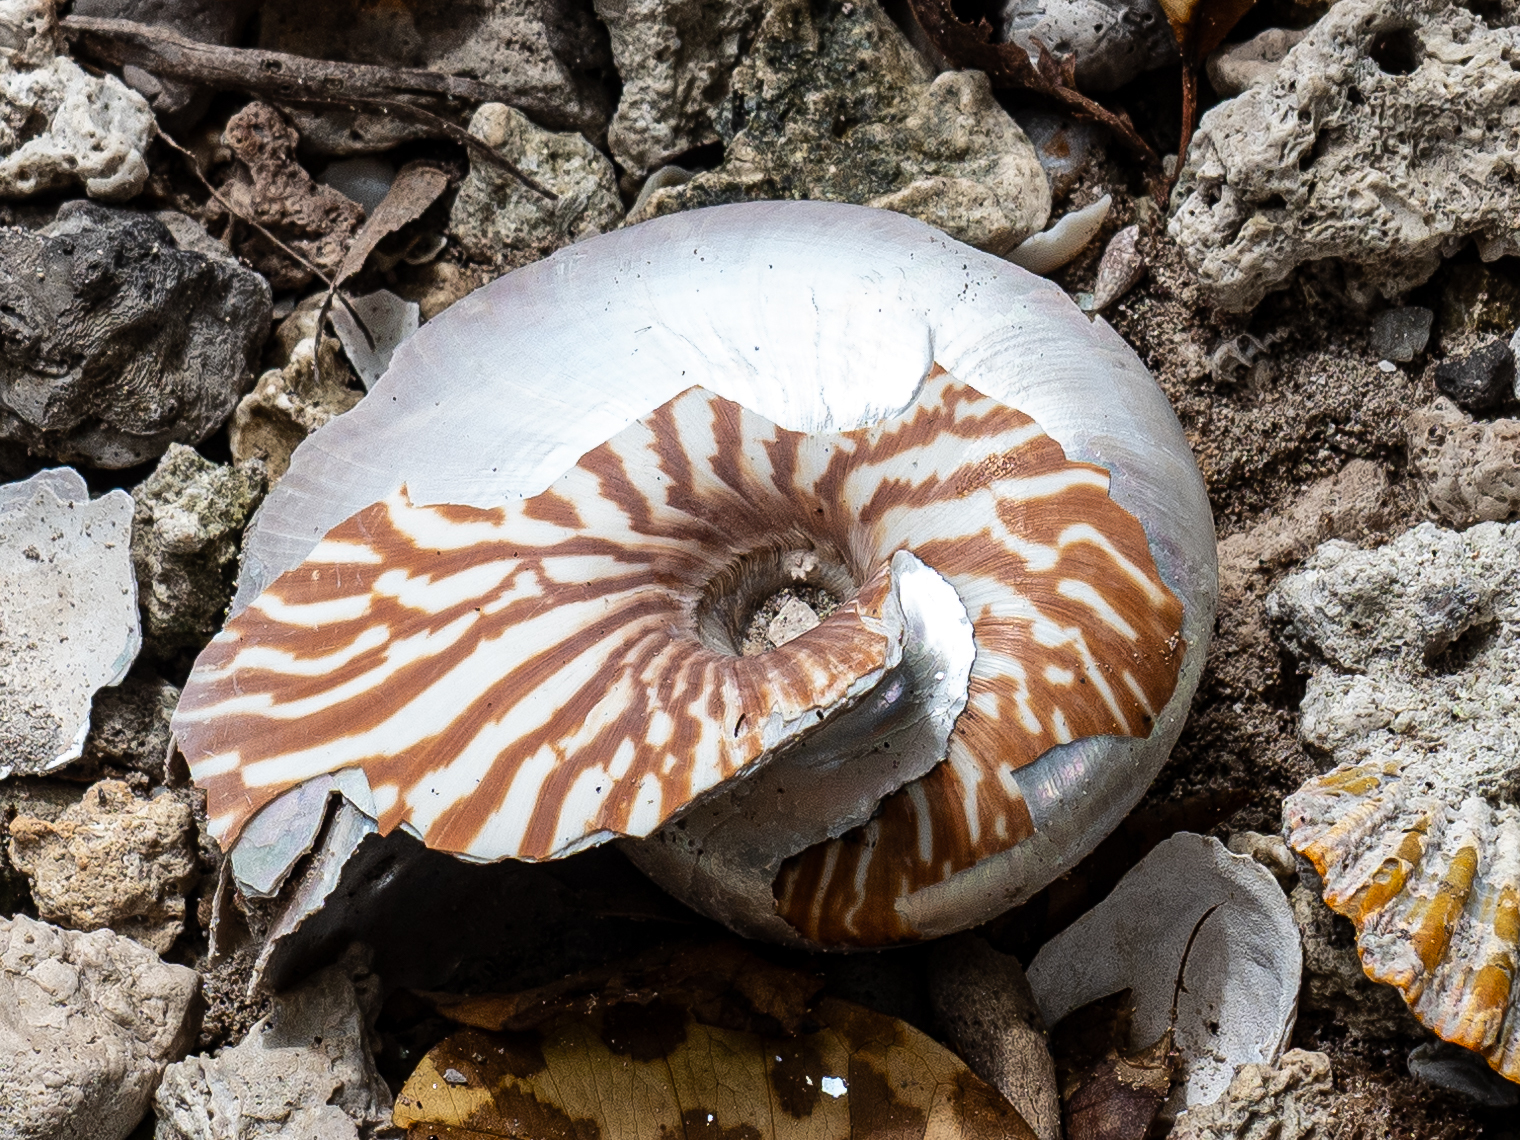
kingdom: Animalia
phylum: Mollusca
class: Cephalopoda
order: Nautilida
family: Nautilidae
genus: Nautilus
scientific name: Nautilus macromphalus
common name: Bellybutton nautilus
